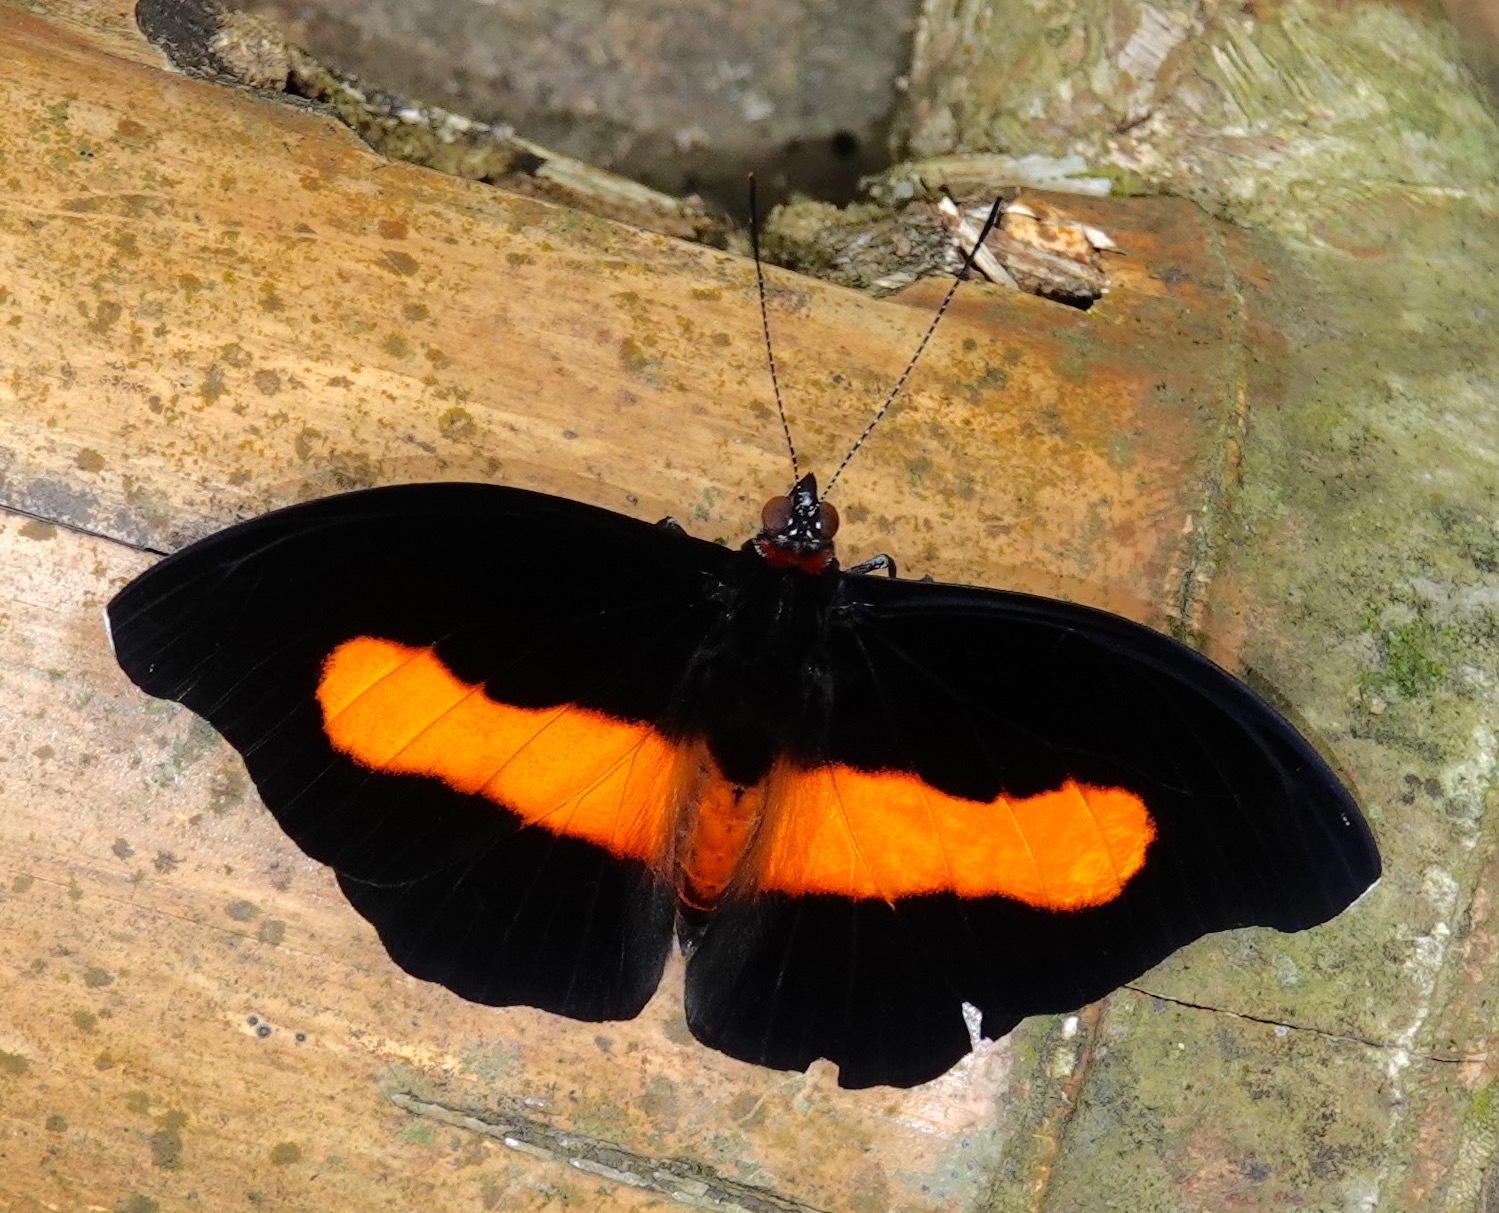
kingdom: Animalia
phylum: Arthropoda
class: Insecta
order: Lepidoptera
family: Nymphalidae
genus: Catonephele
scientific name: Catonephele acontius
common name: Unspotted firewing
